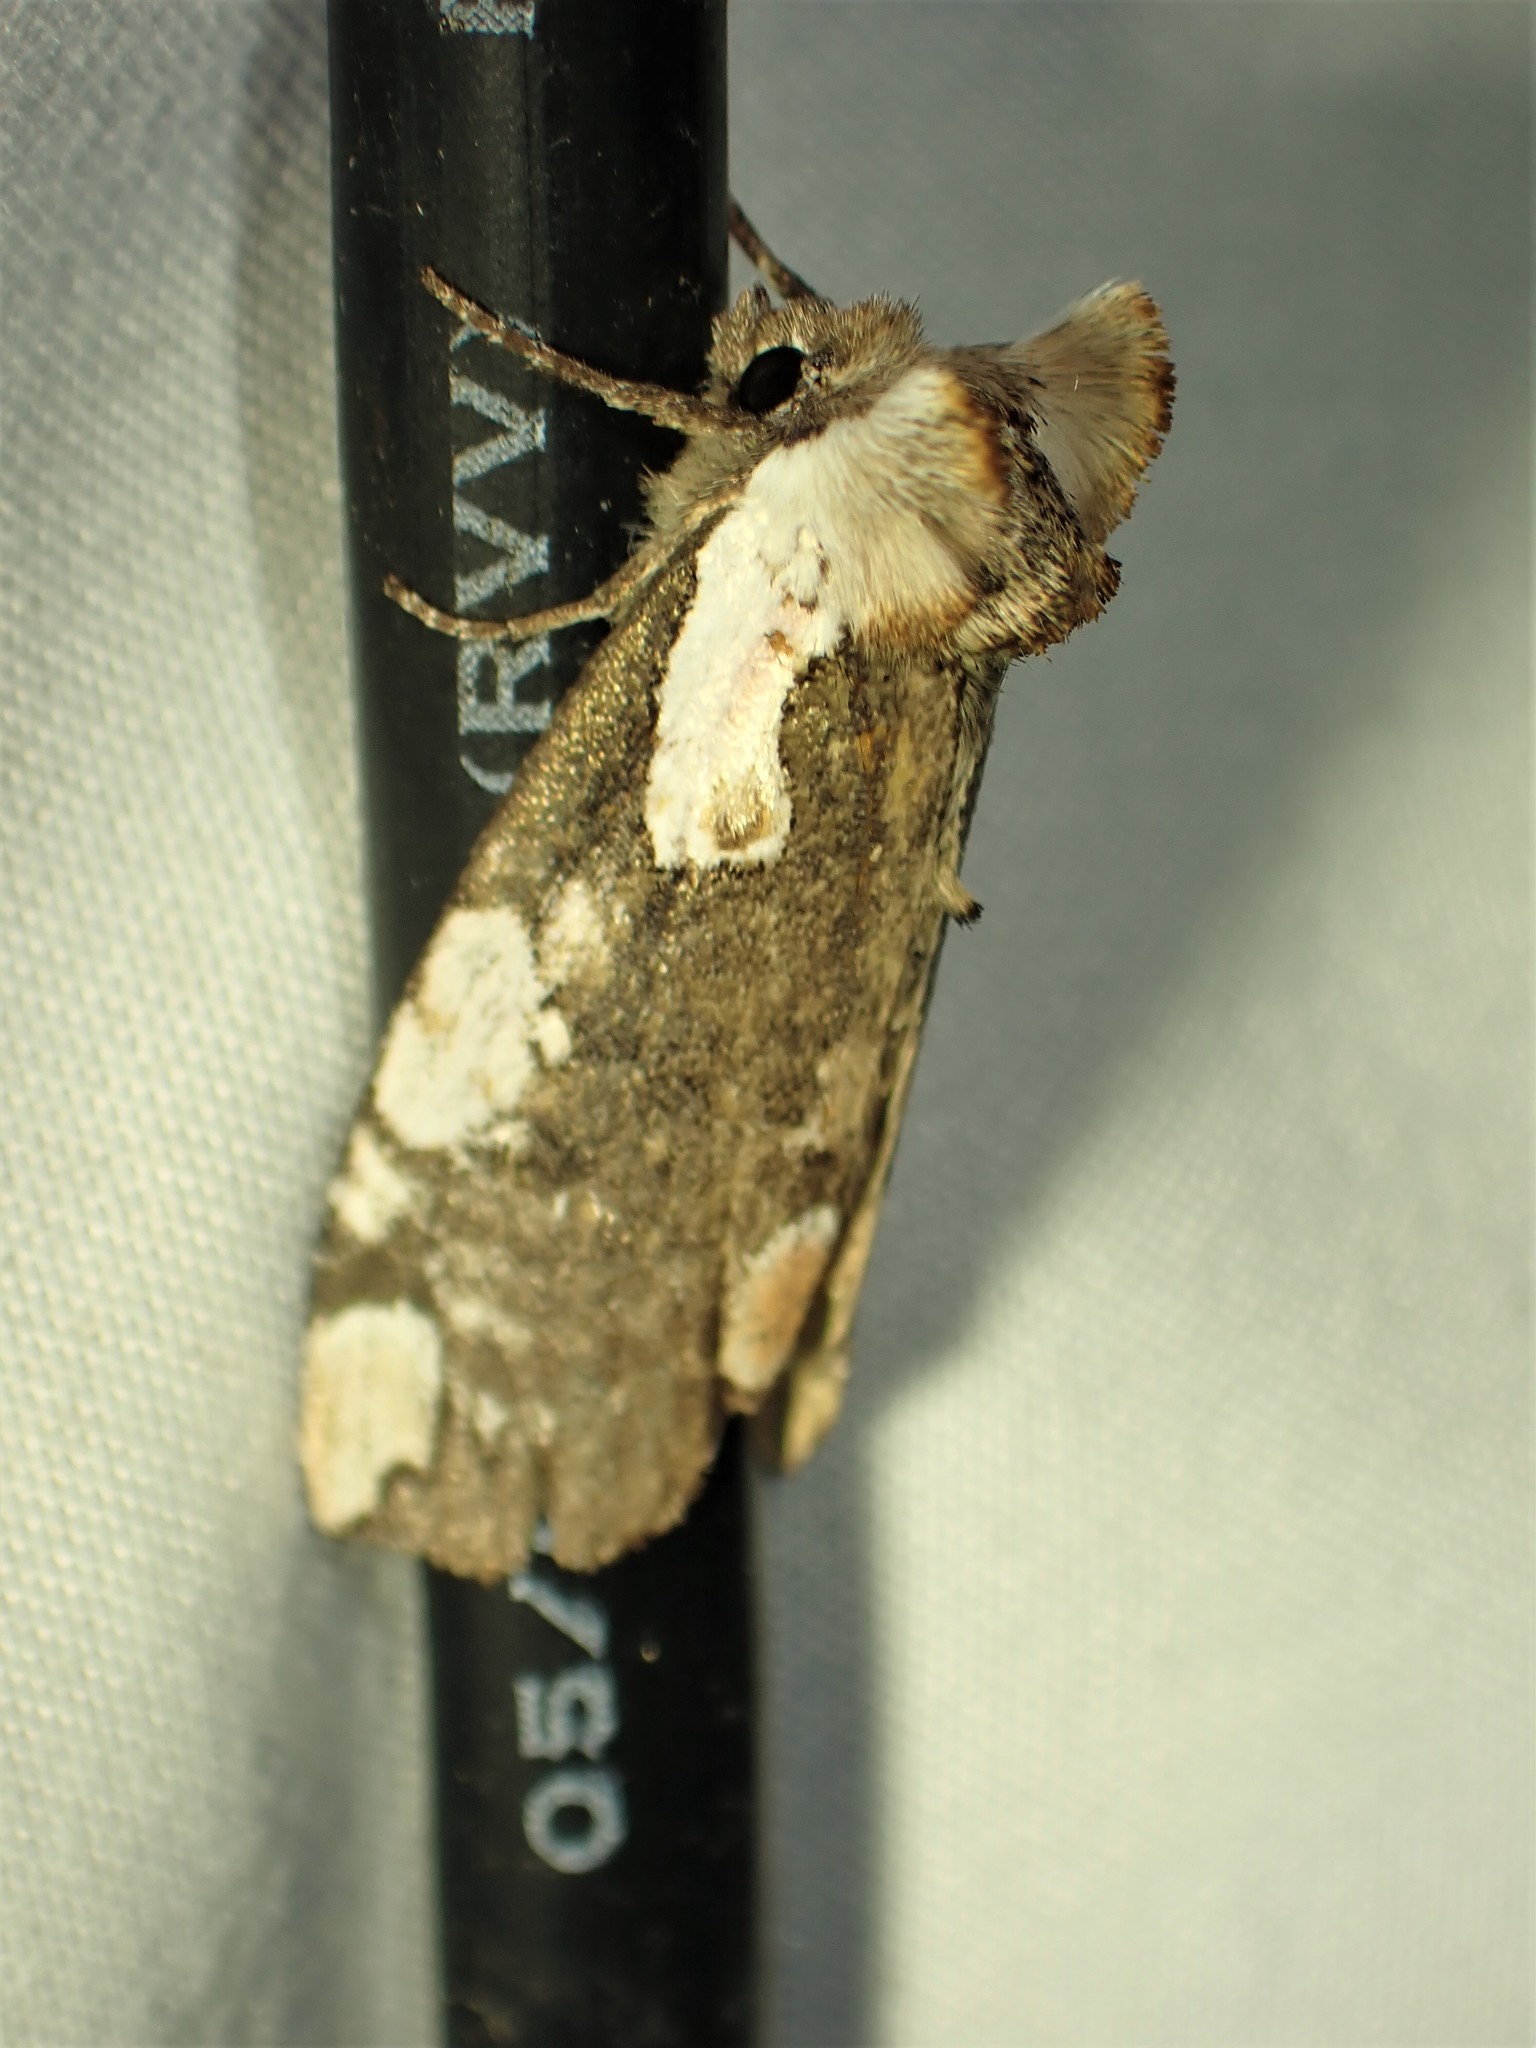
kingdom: Animalia
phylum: Arthropoda
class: Insecta
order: Lepidoptera
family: Drepanidae
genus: Euthyatira
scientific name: Euthyatira pudens
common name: Dogwood thyatirid moth
